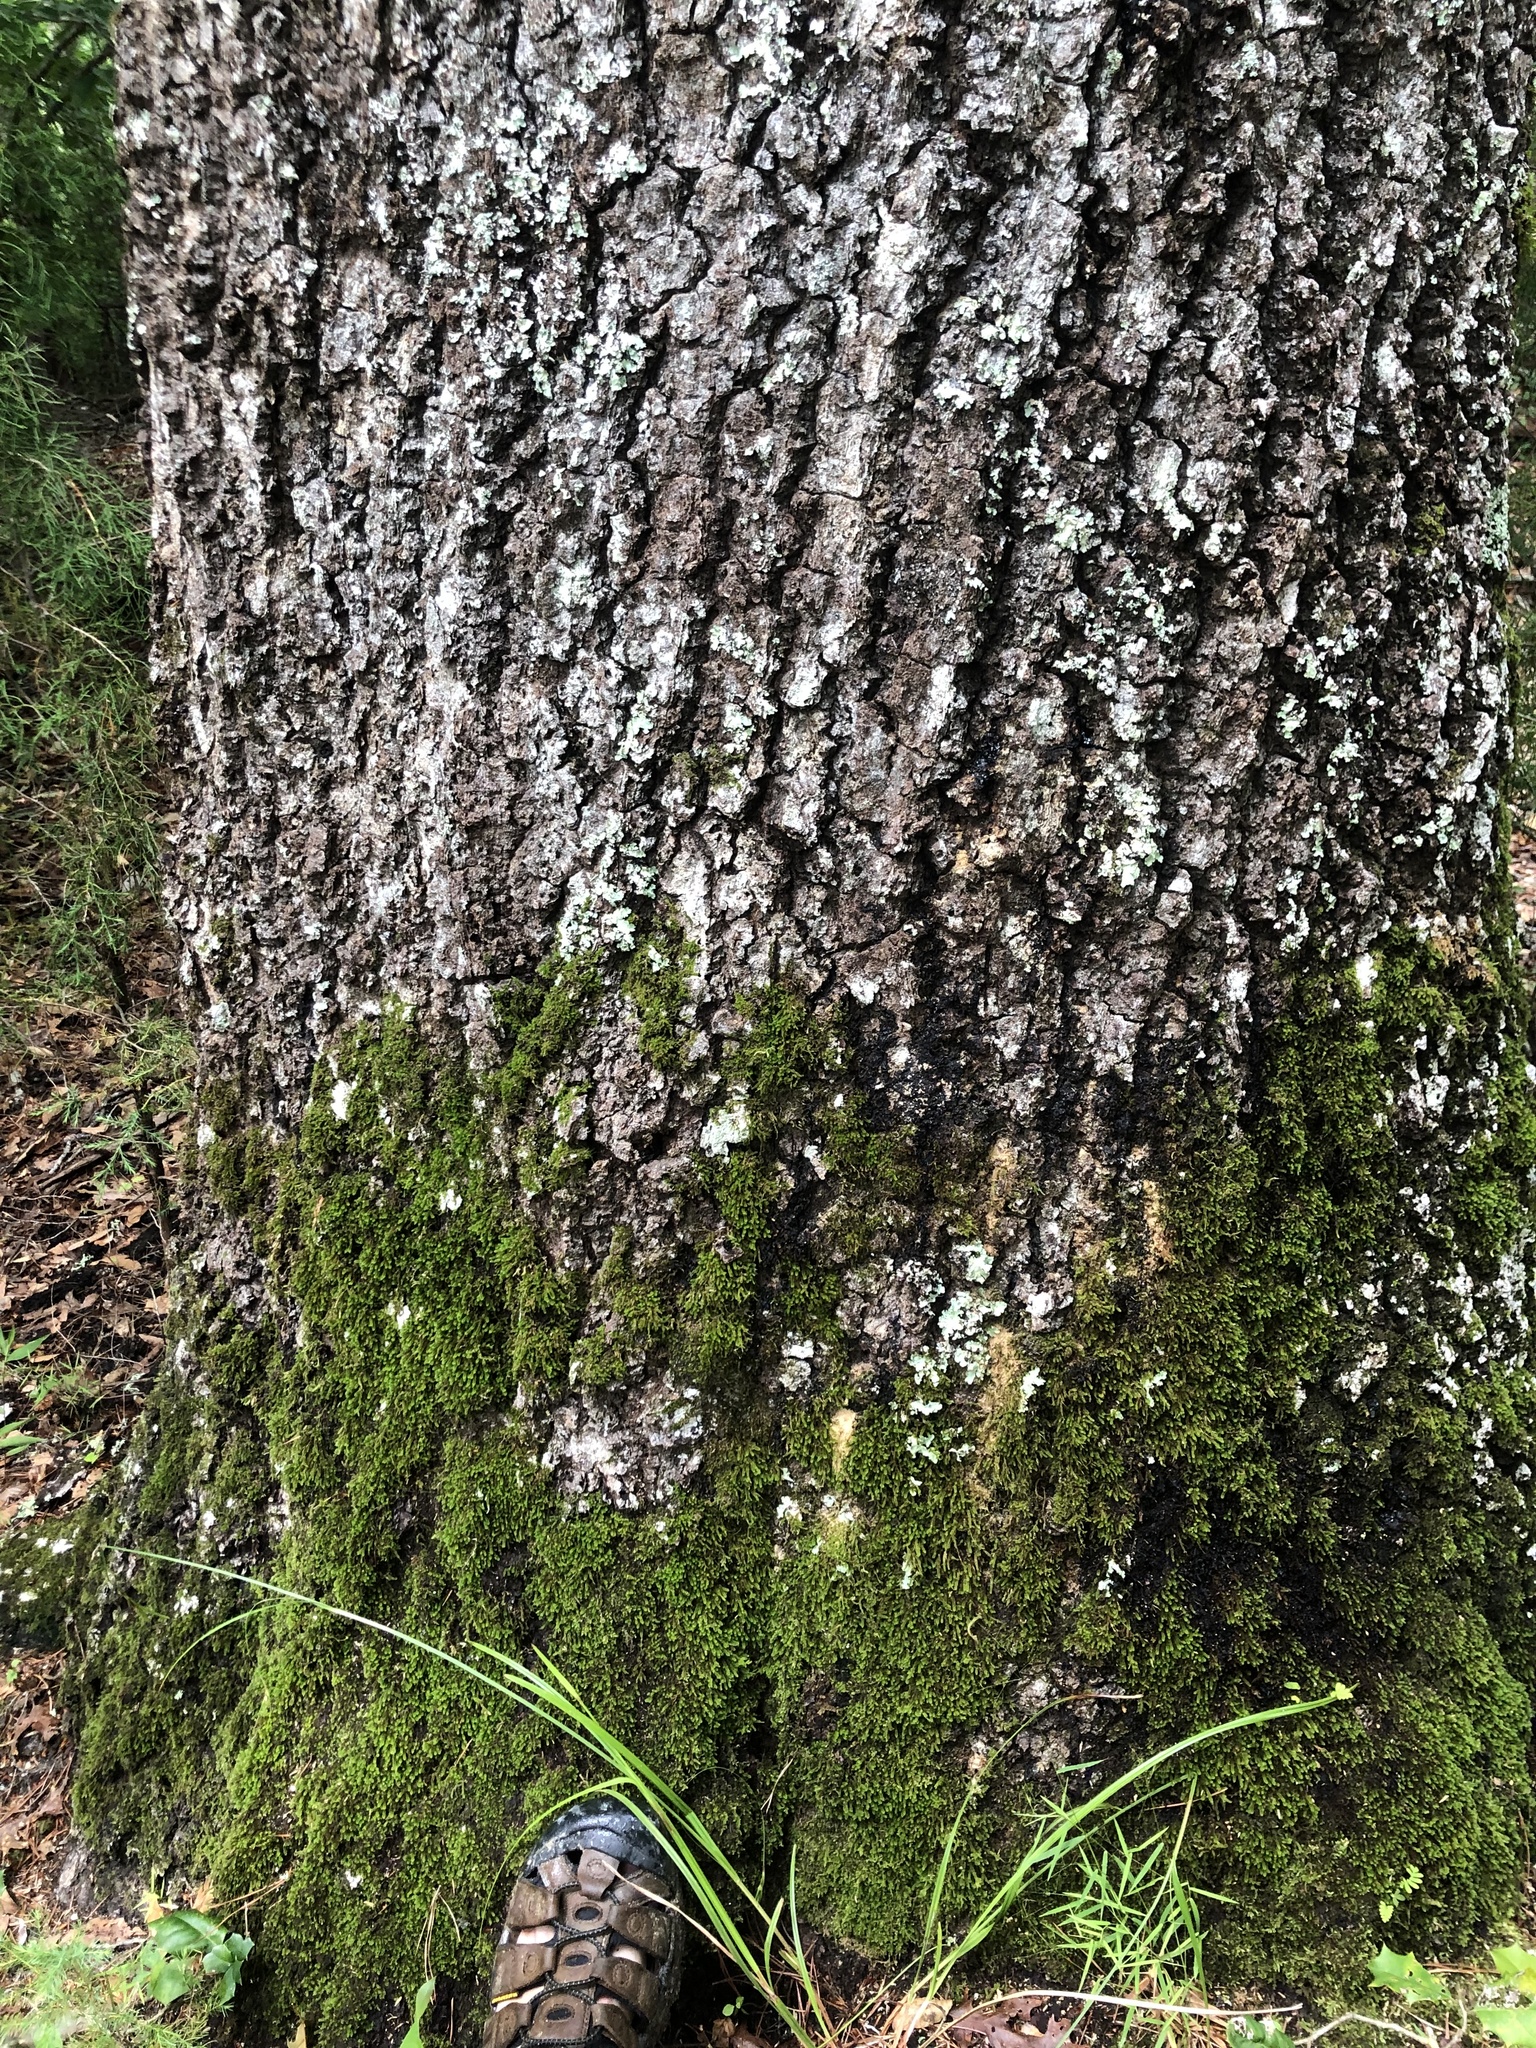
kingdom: Plantae
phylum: Tracheophyta
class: Magnoliopsida
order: Fagales
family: Fagaceae
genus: Quercus
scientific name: Quercus coccinea
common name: Scarlet oak
